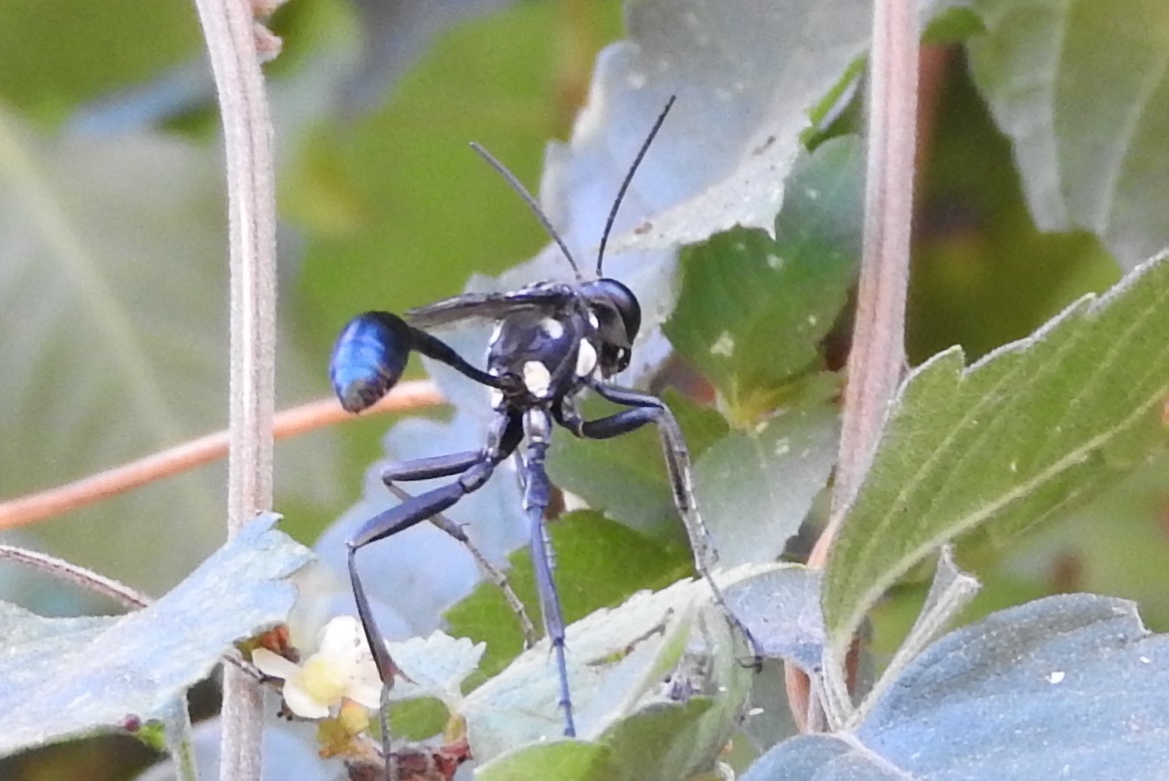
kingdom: Animalia
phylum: Arthropoda
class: Insecta
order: Hymenoptera
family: Sphecidae
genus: Eremnophila
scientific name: Eremnophila aureonotata
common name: Gold-marked thread-waisted wasp
